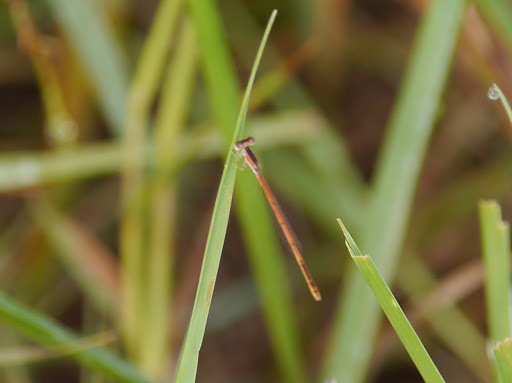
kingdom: Animalia
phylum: Arthropoda
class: Insecta
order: Odonata
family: Coenagrionidae
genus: Agriocnemis
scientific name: Agriocnemis exilis
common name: Little wisp
